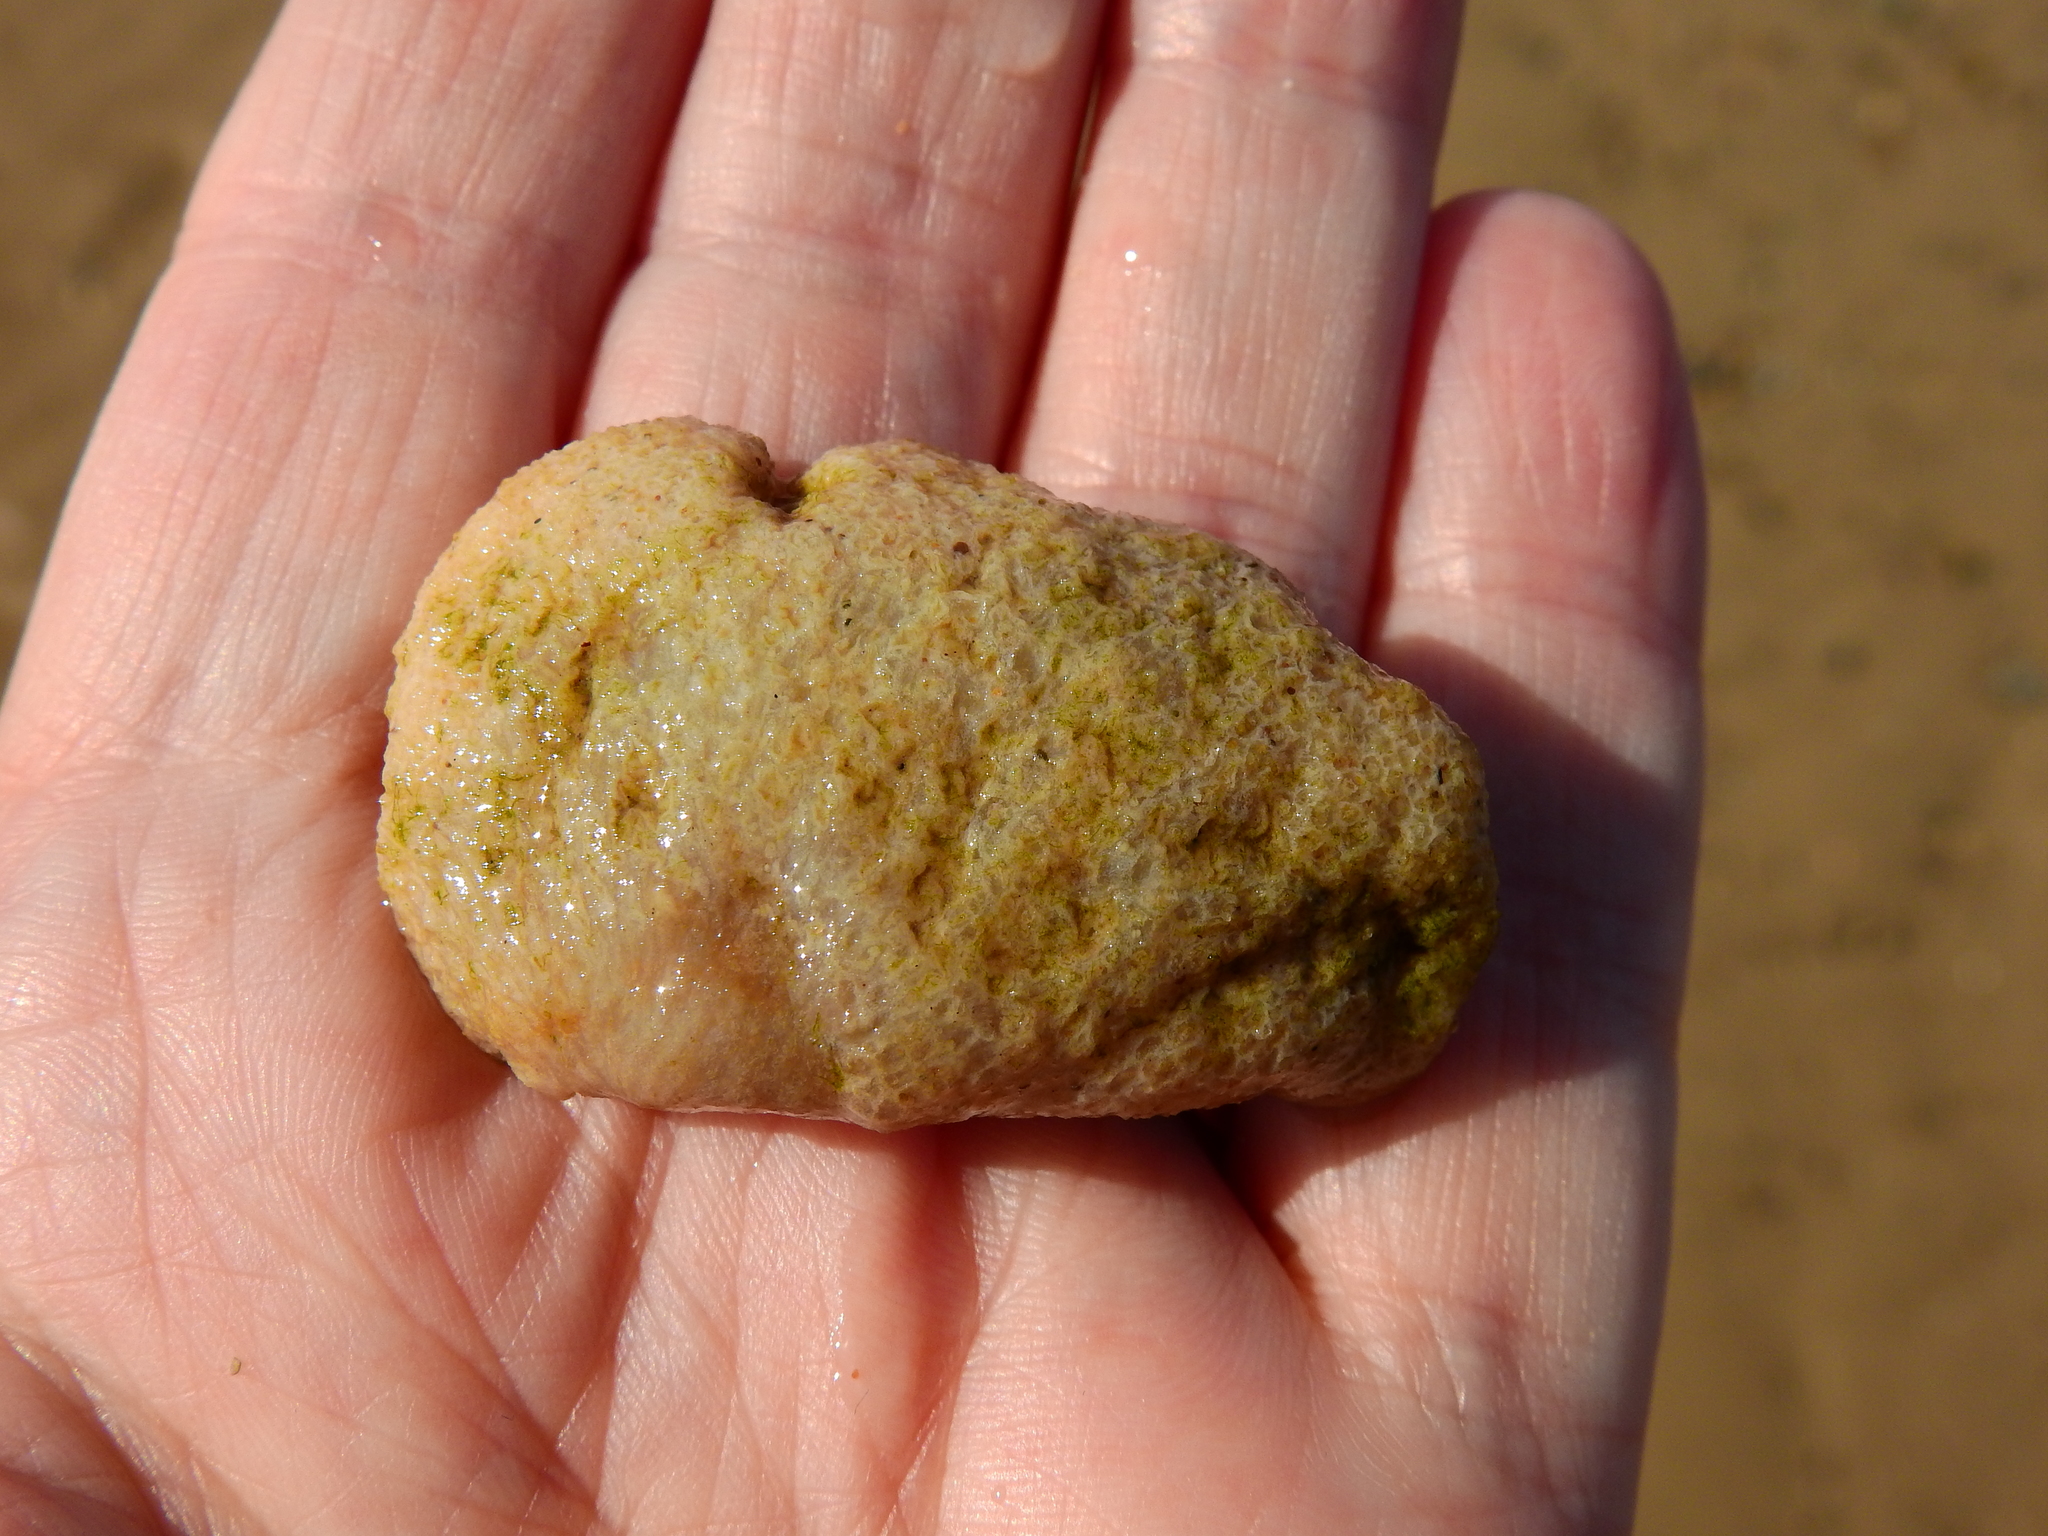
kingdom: Animalia
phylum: Cnidaria
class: Anthozoa
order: Malacalcyonacea
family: Alcyoniidae
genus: Alcyonium
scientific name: Alcyonium digitatum
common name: Dead man's fingers
